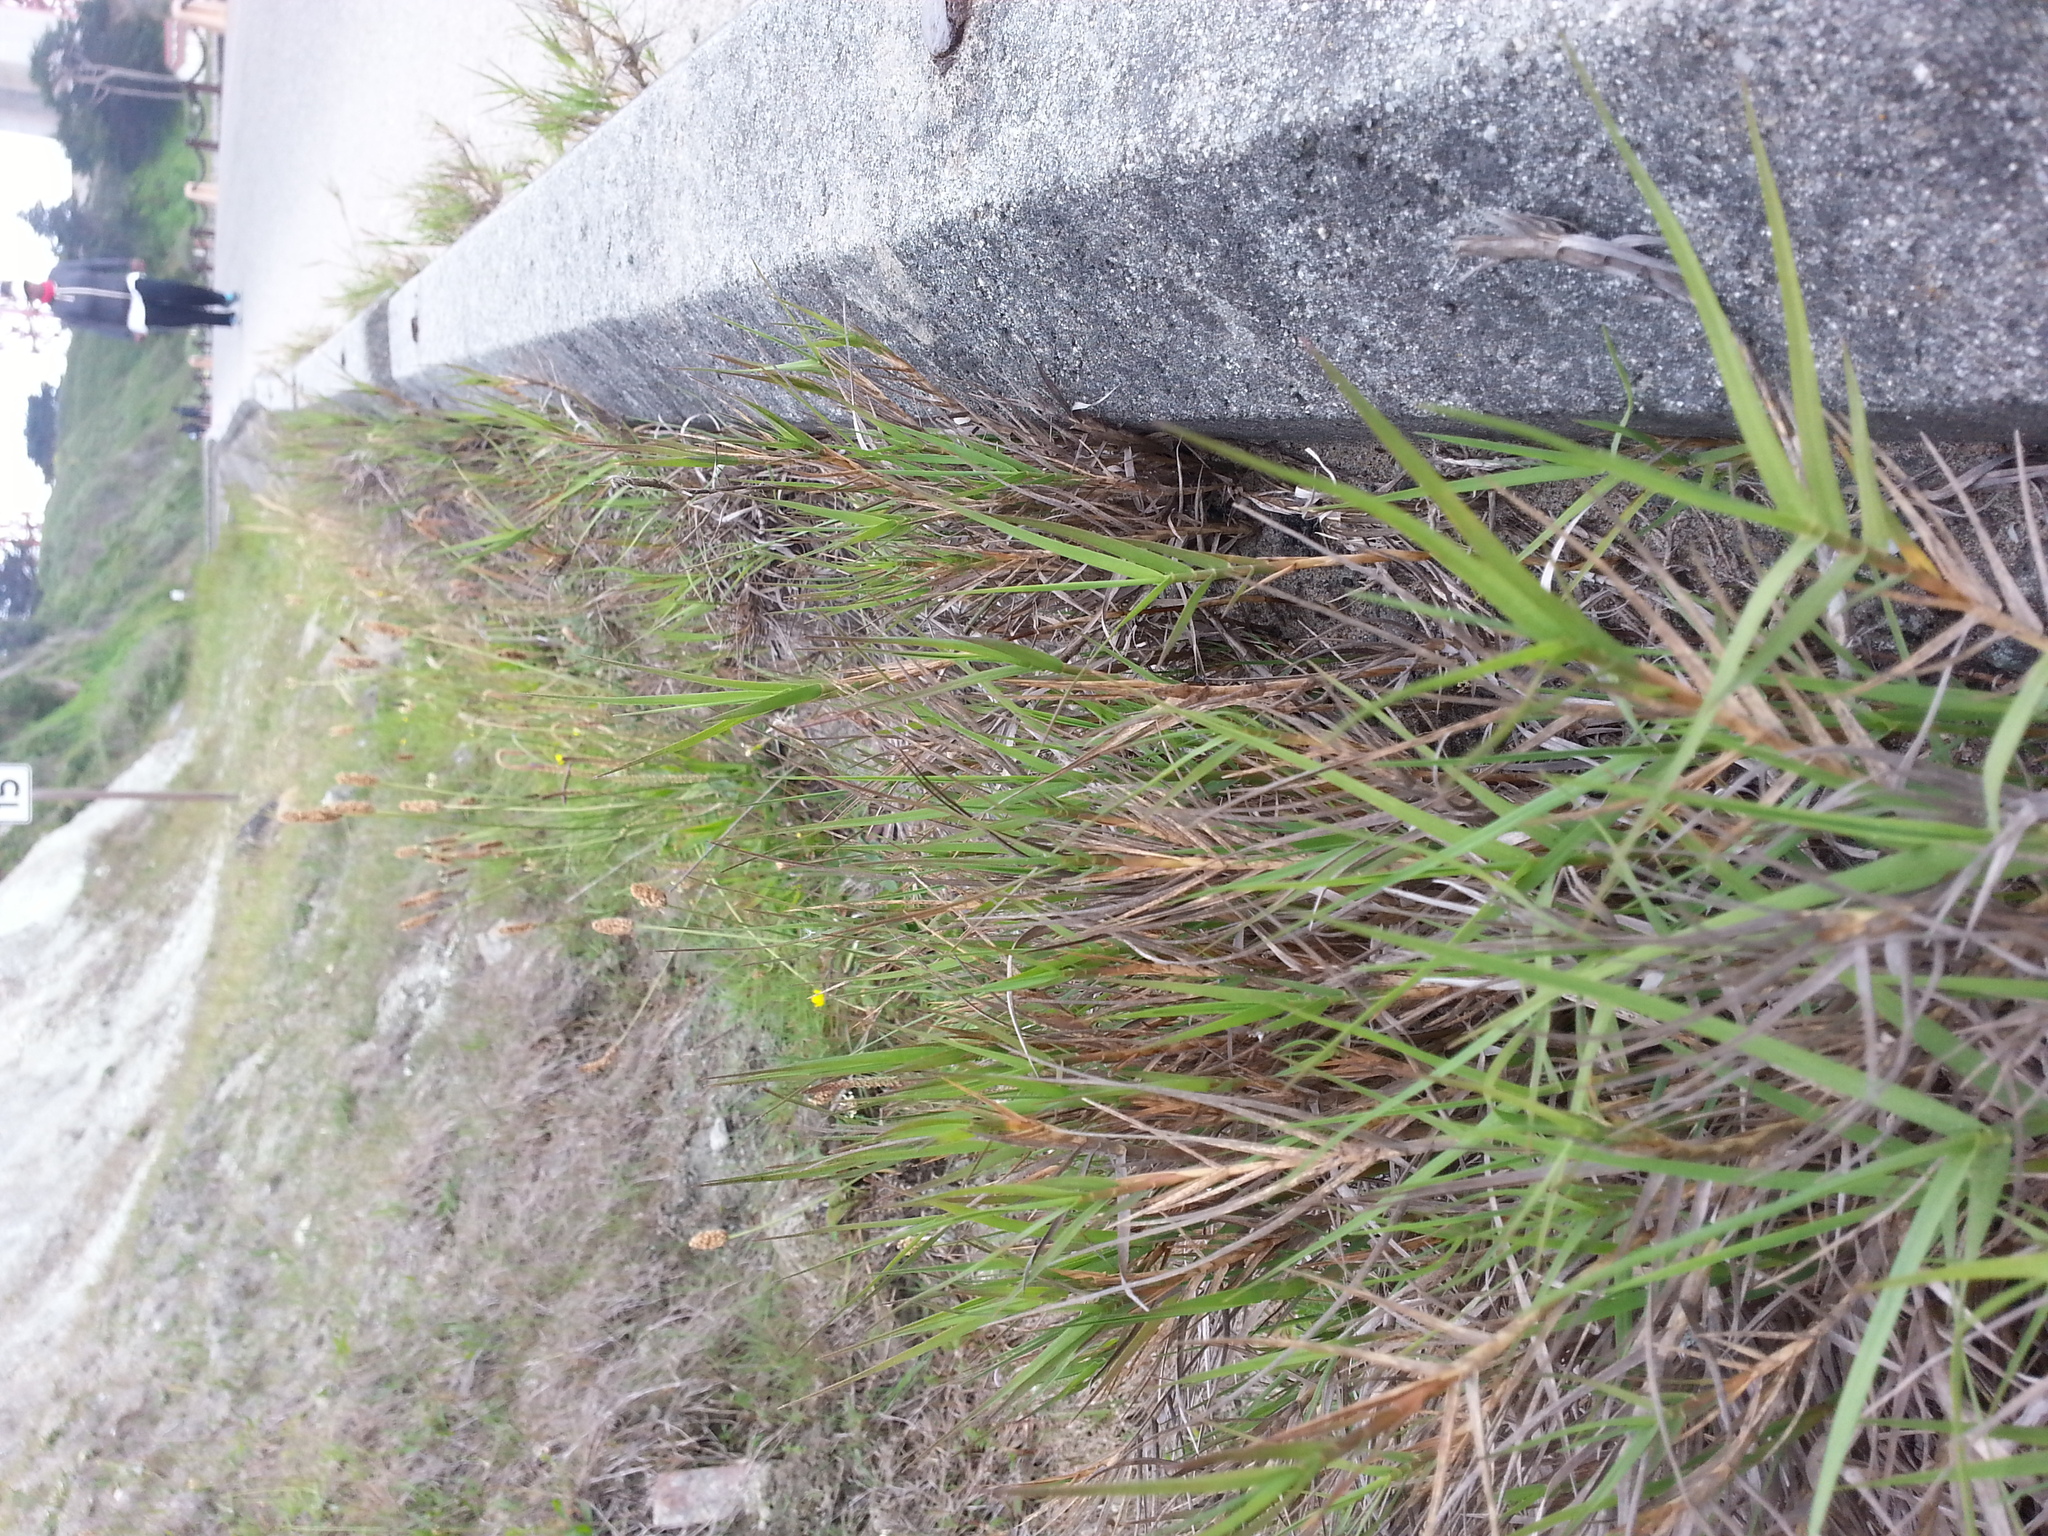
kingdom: Plantae
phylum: Tracheophyta
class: Liliopsida
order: Poales
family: Poaceae
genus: Distichlis
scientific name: Distichlis spicata
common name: Saltgrass
